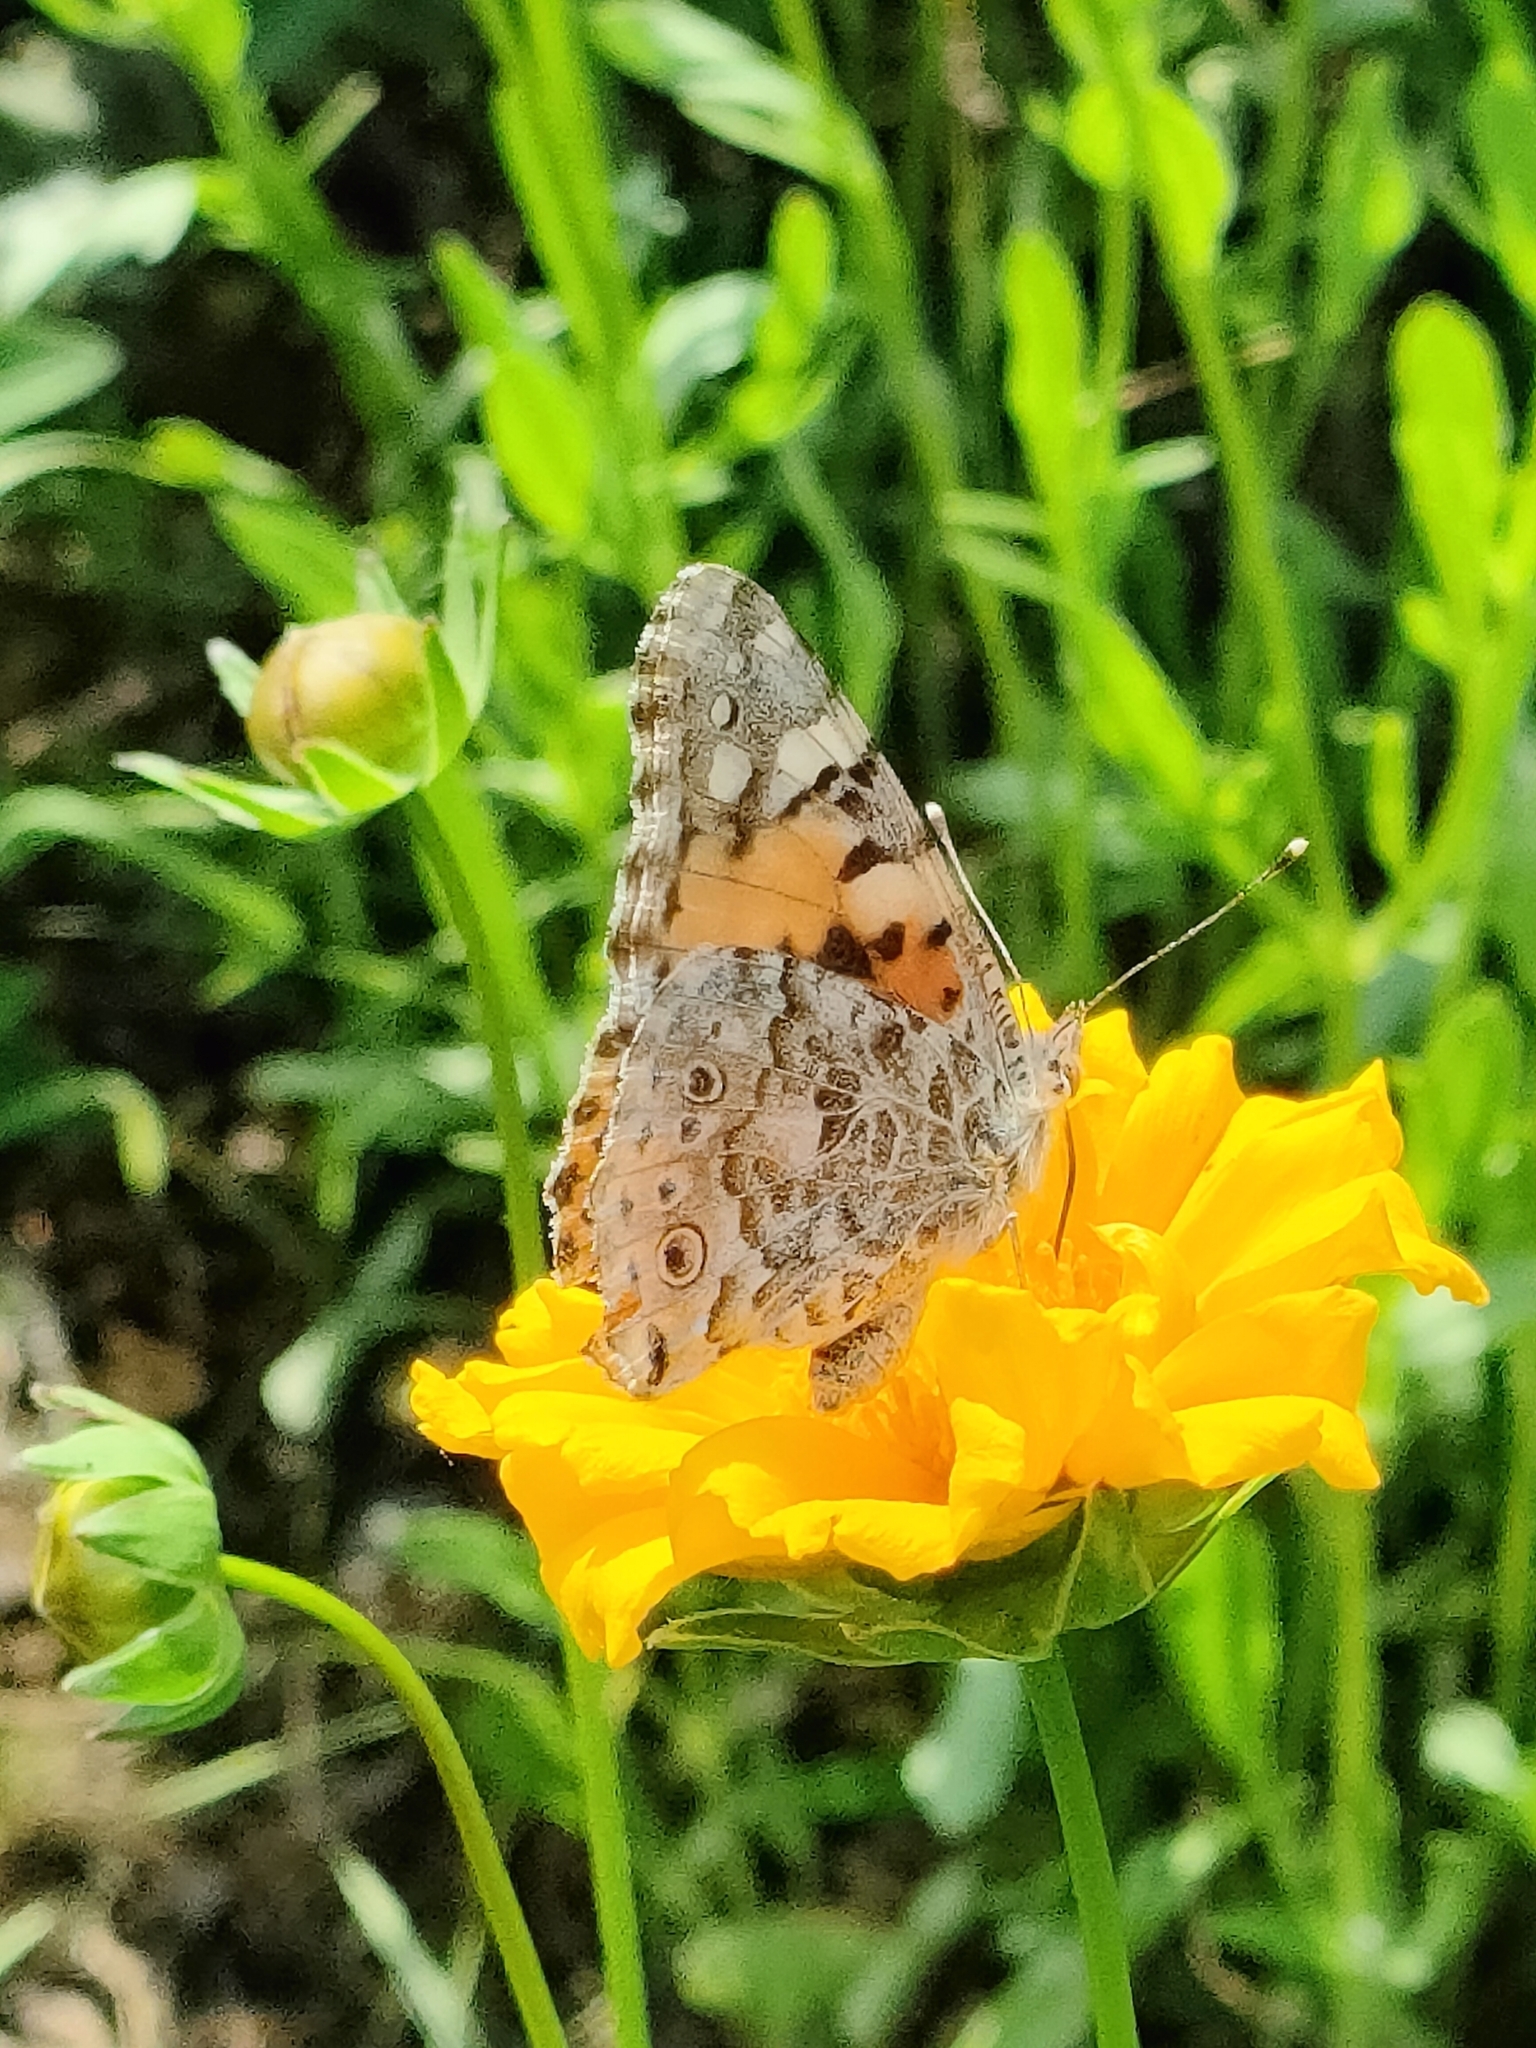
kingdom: Animalia
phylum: Arthropoda
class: Insecta
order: Lepidoptera
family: Nymphalidae
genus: Vanessa
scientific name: Vanessa cardui
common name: Painted lady
